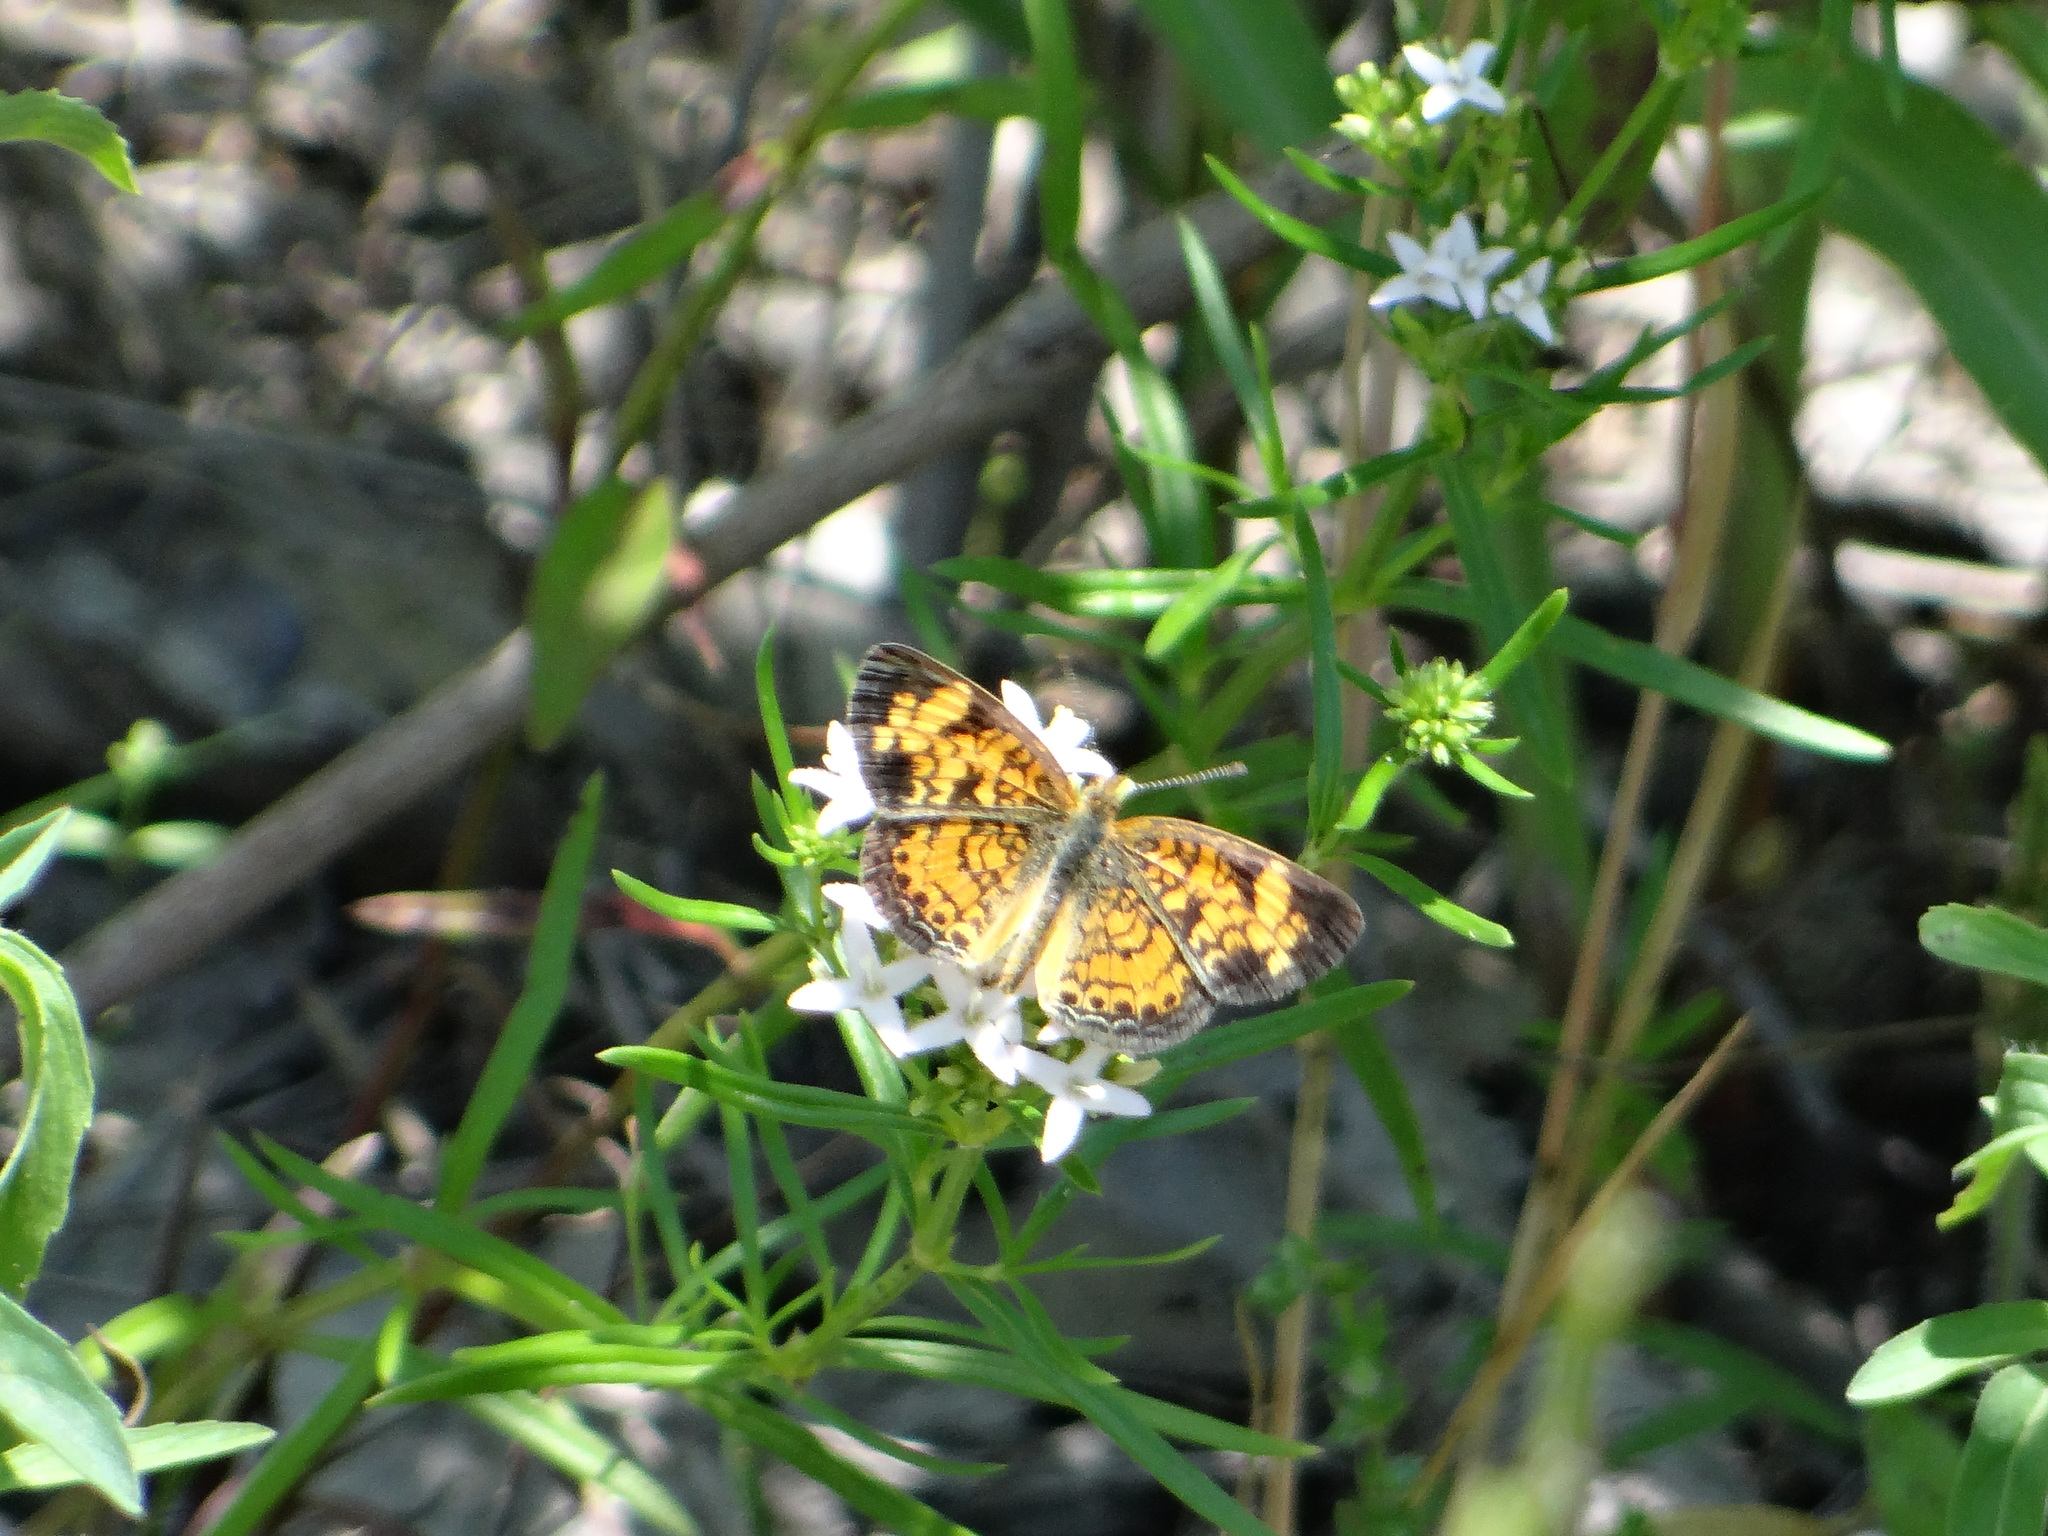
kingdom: Animalia
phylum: Arthropoda
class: Insecta
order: Lepidoptera
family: Nymphalidae
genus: Phyciodes
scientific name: Phyciodes tharos
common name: Pearl crescent
